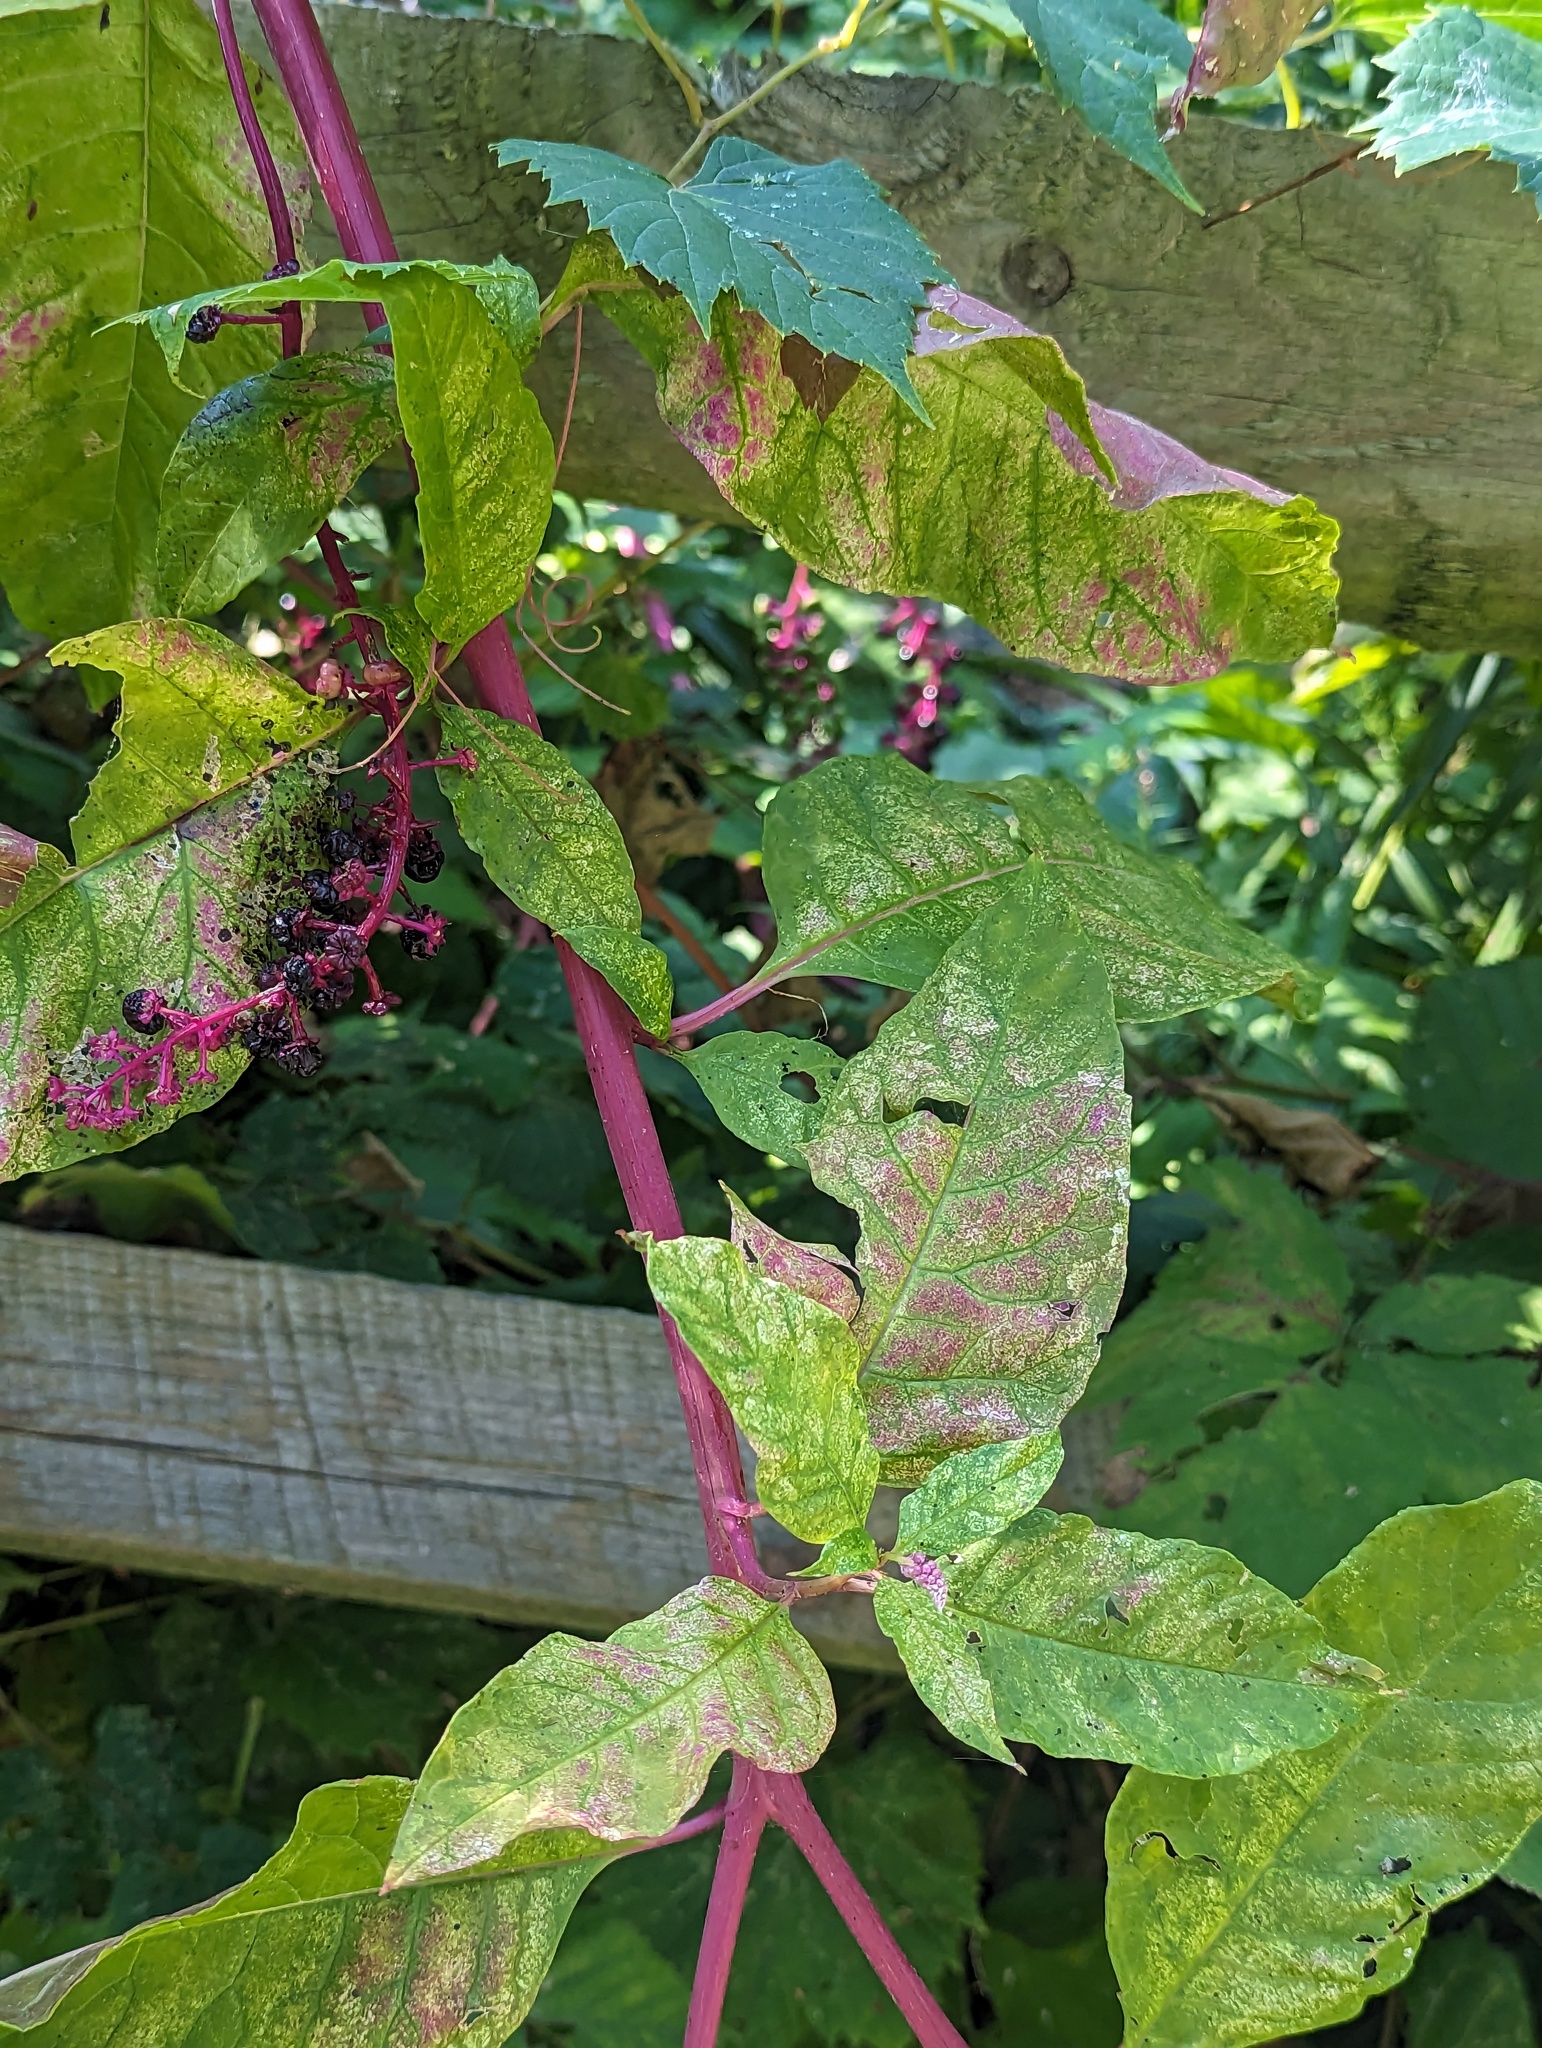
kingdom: Plantae
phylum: Tracheophyta
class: Magnoliopsida
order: Caryophyllales
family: Phytolaccaceae
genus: Phytolacca
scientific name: Phytolacca americana
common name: American pokeweed
